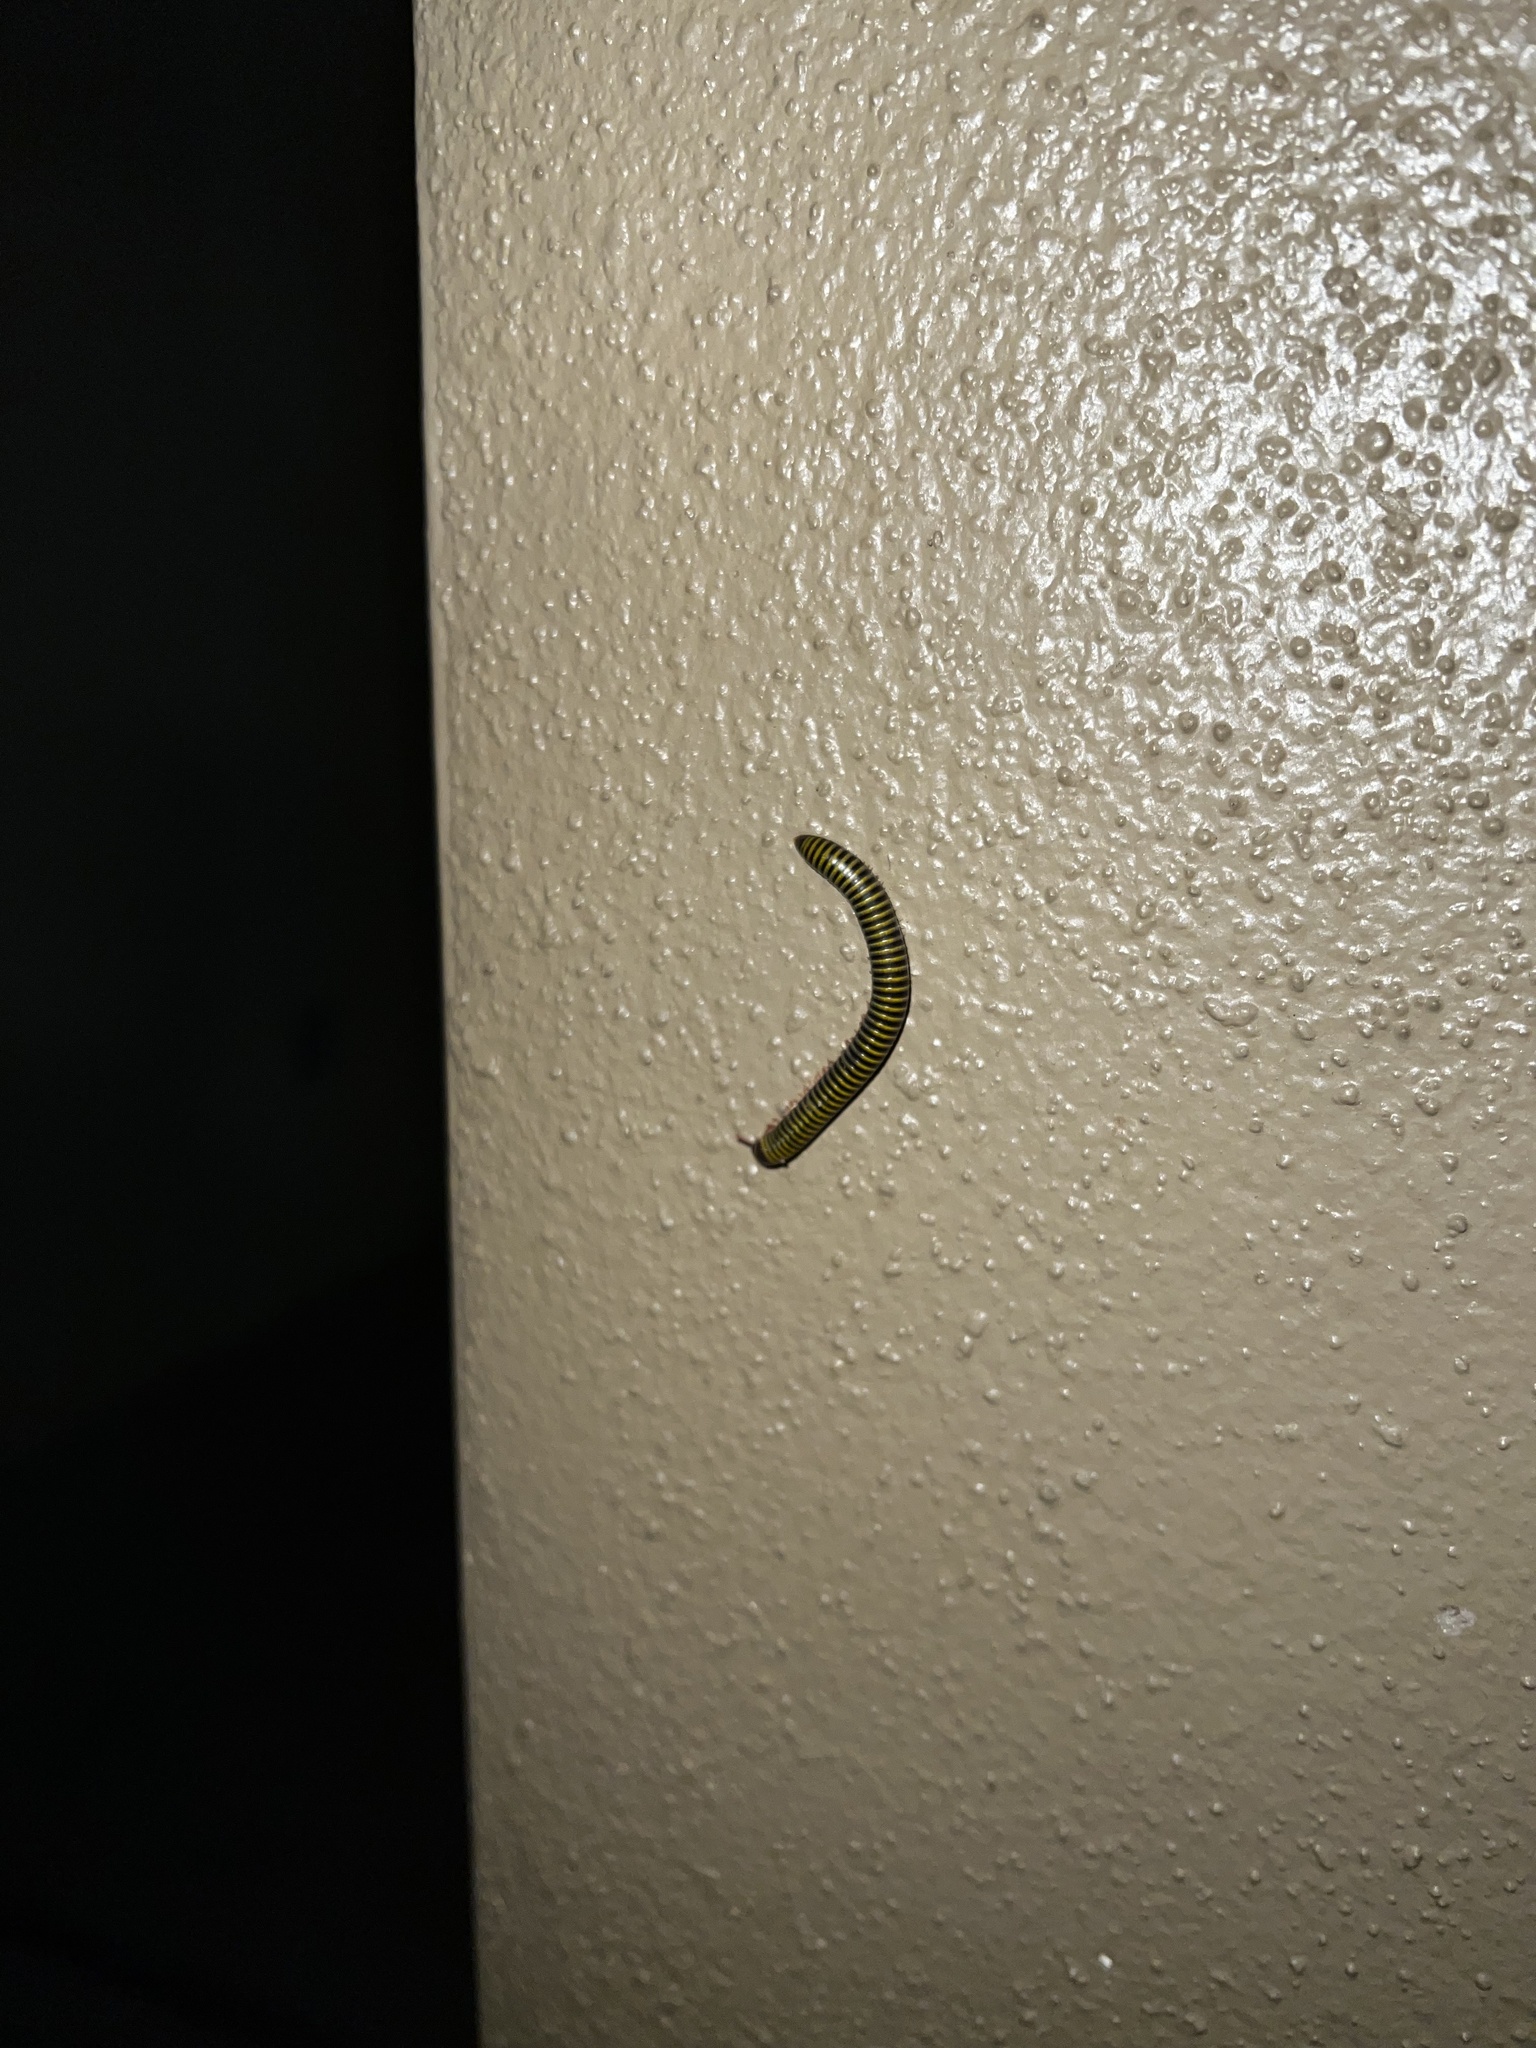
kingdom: Animalia
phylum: Arthropoda
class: Diplopoda
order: Spirobolida
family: Rhinocricidae
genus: Anadenobolus
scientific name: Anadenobolus monilicornis
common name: Caribbean millipede
